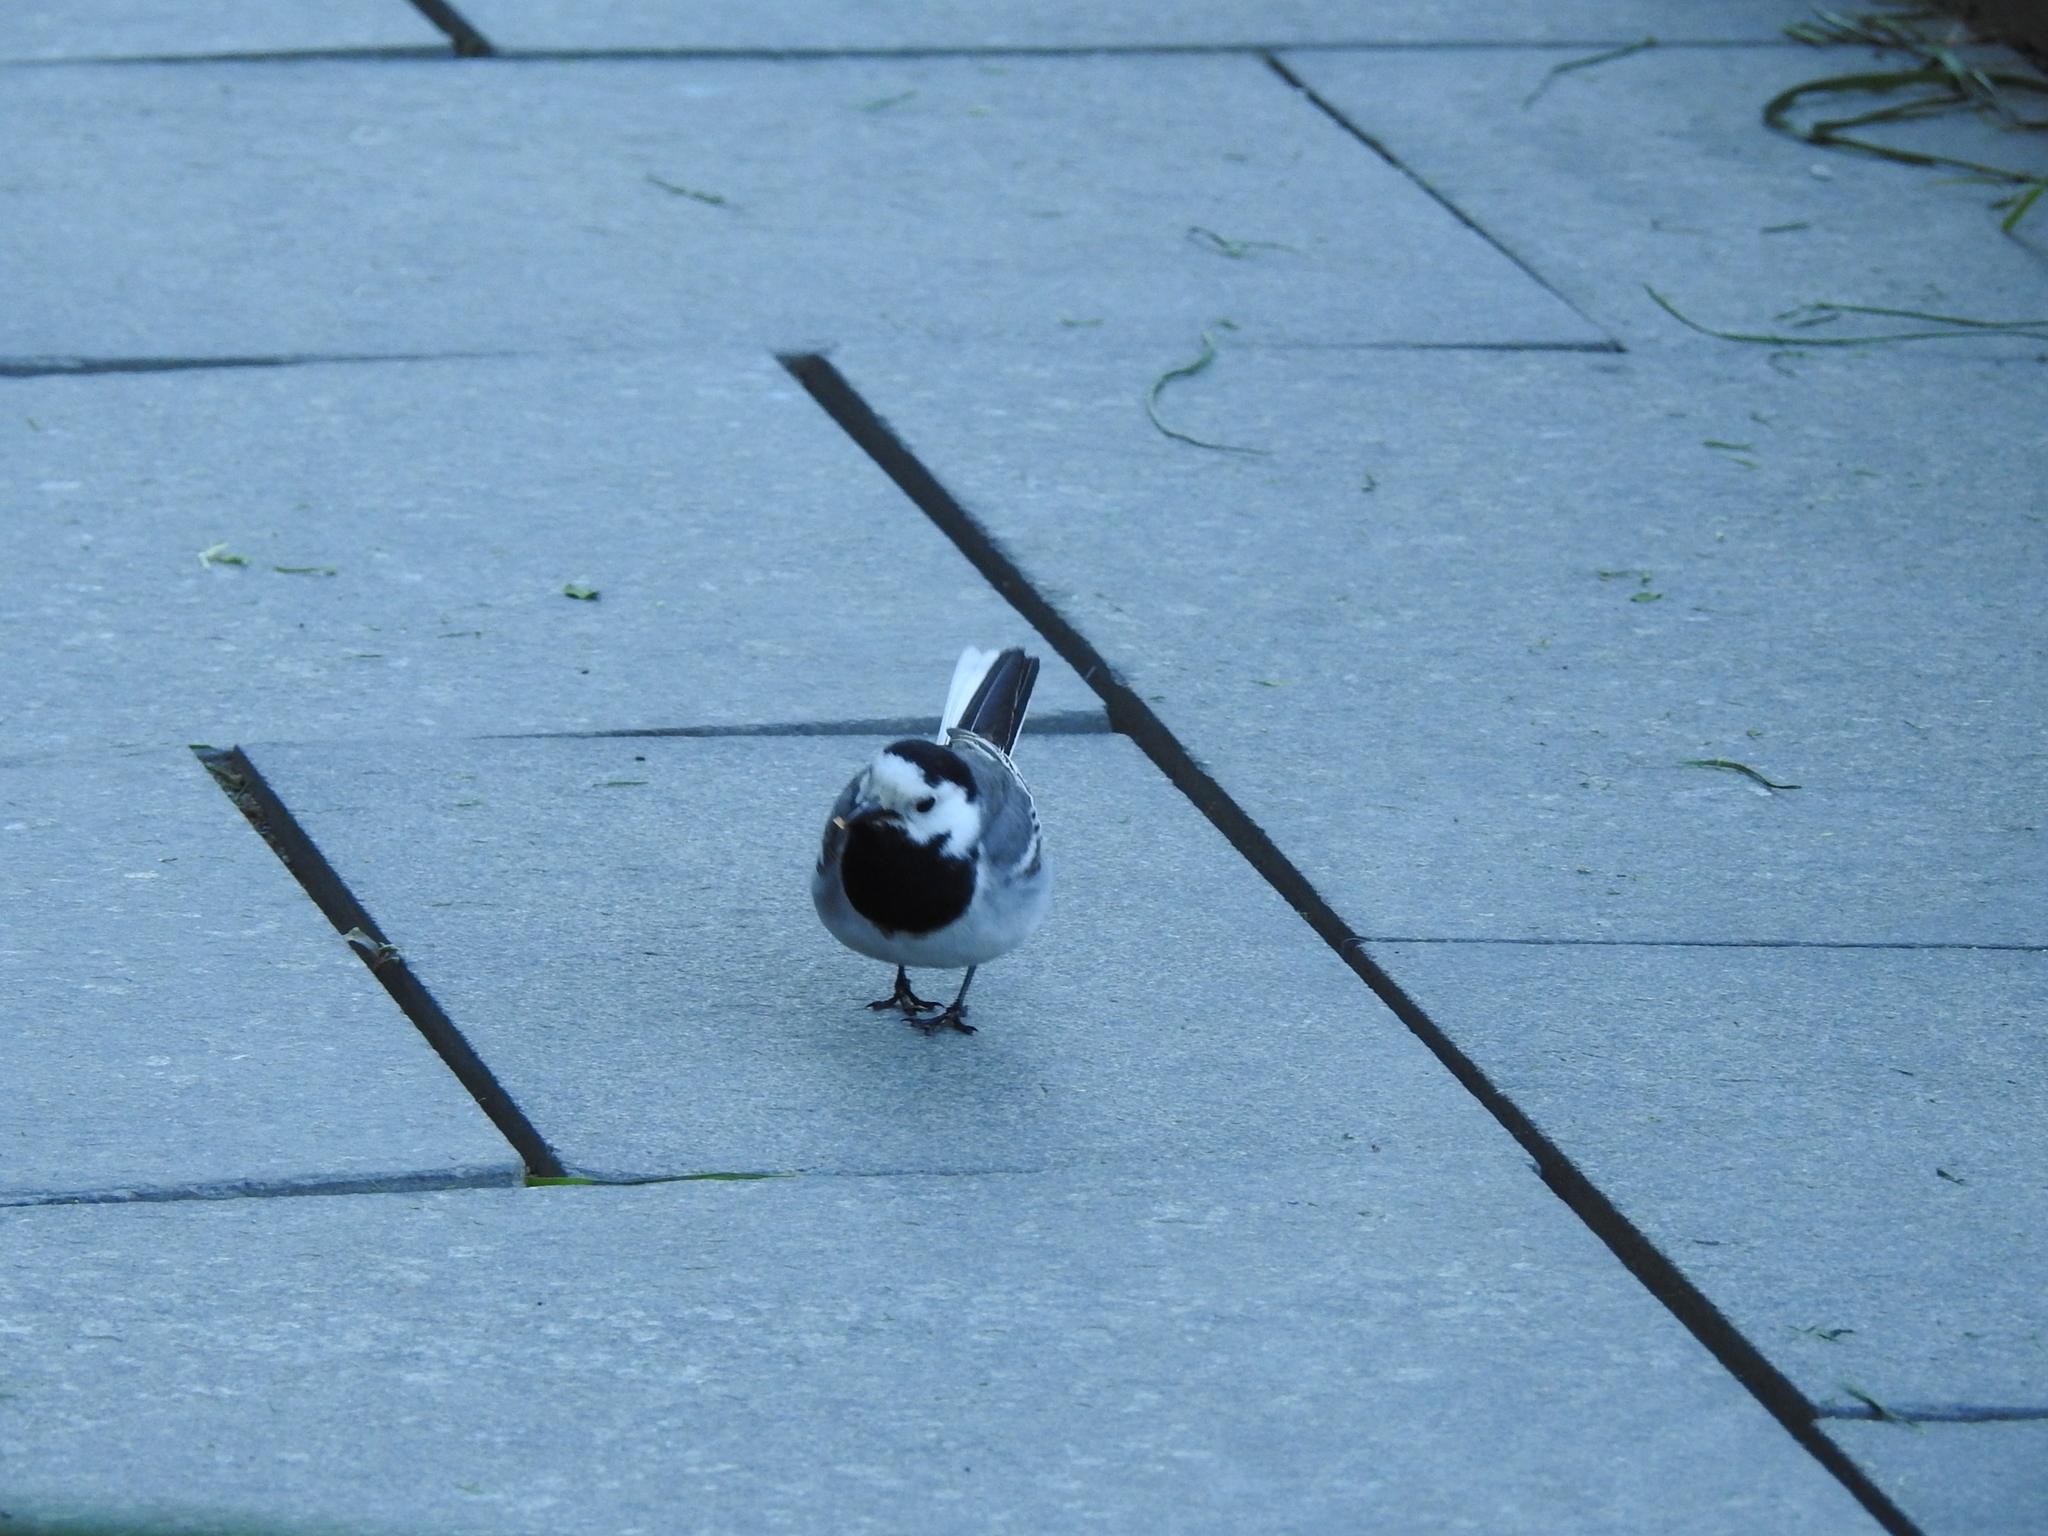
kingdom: Animalia
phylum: Chordata
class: Aves
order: Passeriformes
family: Motacillidae
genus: Motacilla
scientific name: Motacilla alba
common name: White wagtail
